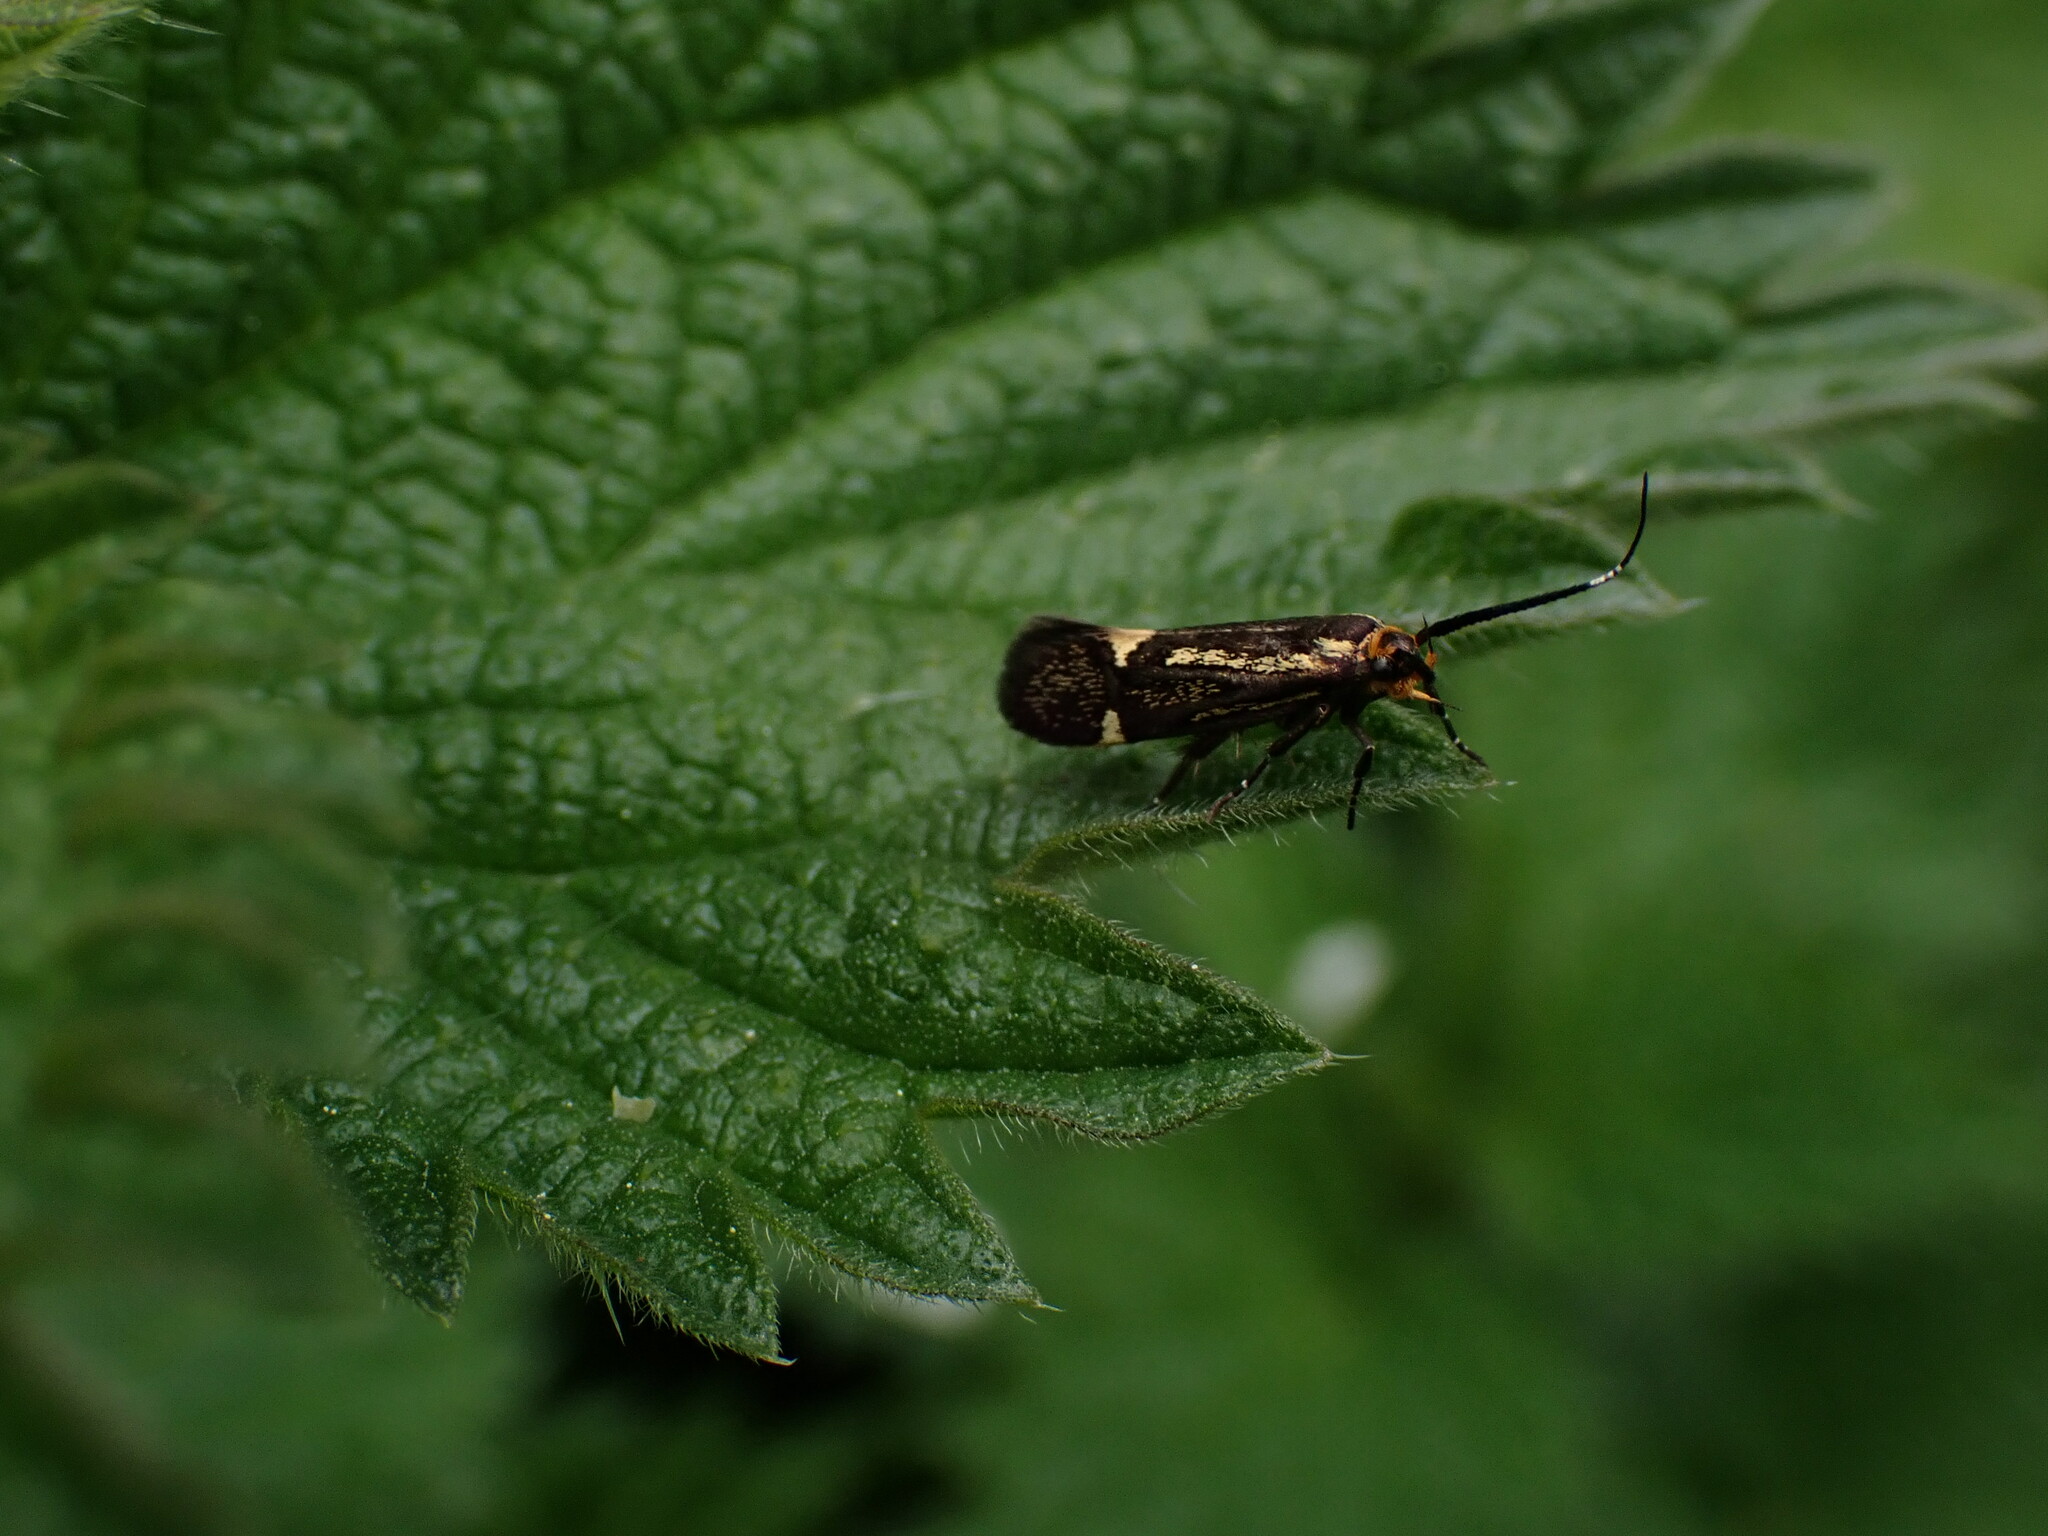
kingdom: Animalia
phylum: Arthropoda
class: Insecta
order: Lepidoptera
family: Oecophoridae
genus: Dafa
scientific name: Dafa Esperia sulphurella
